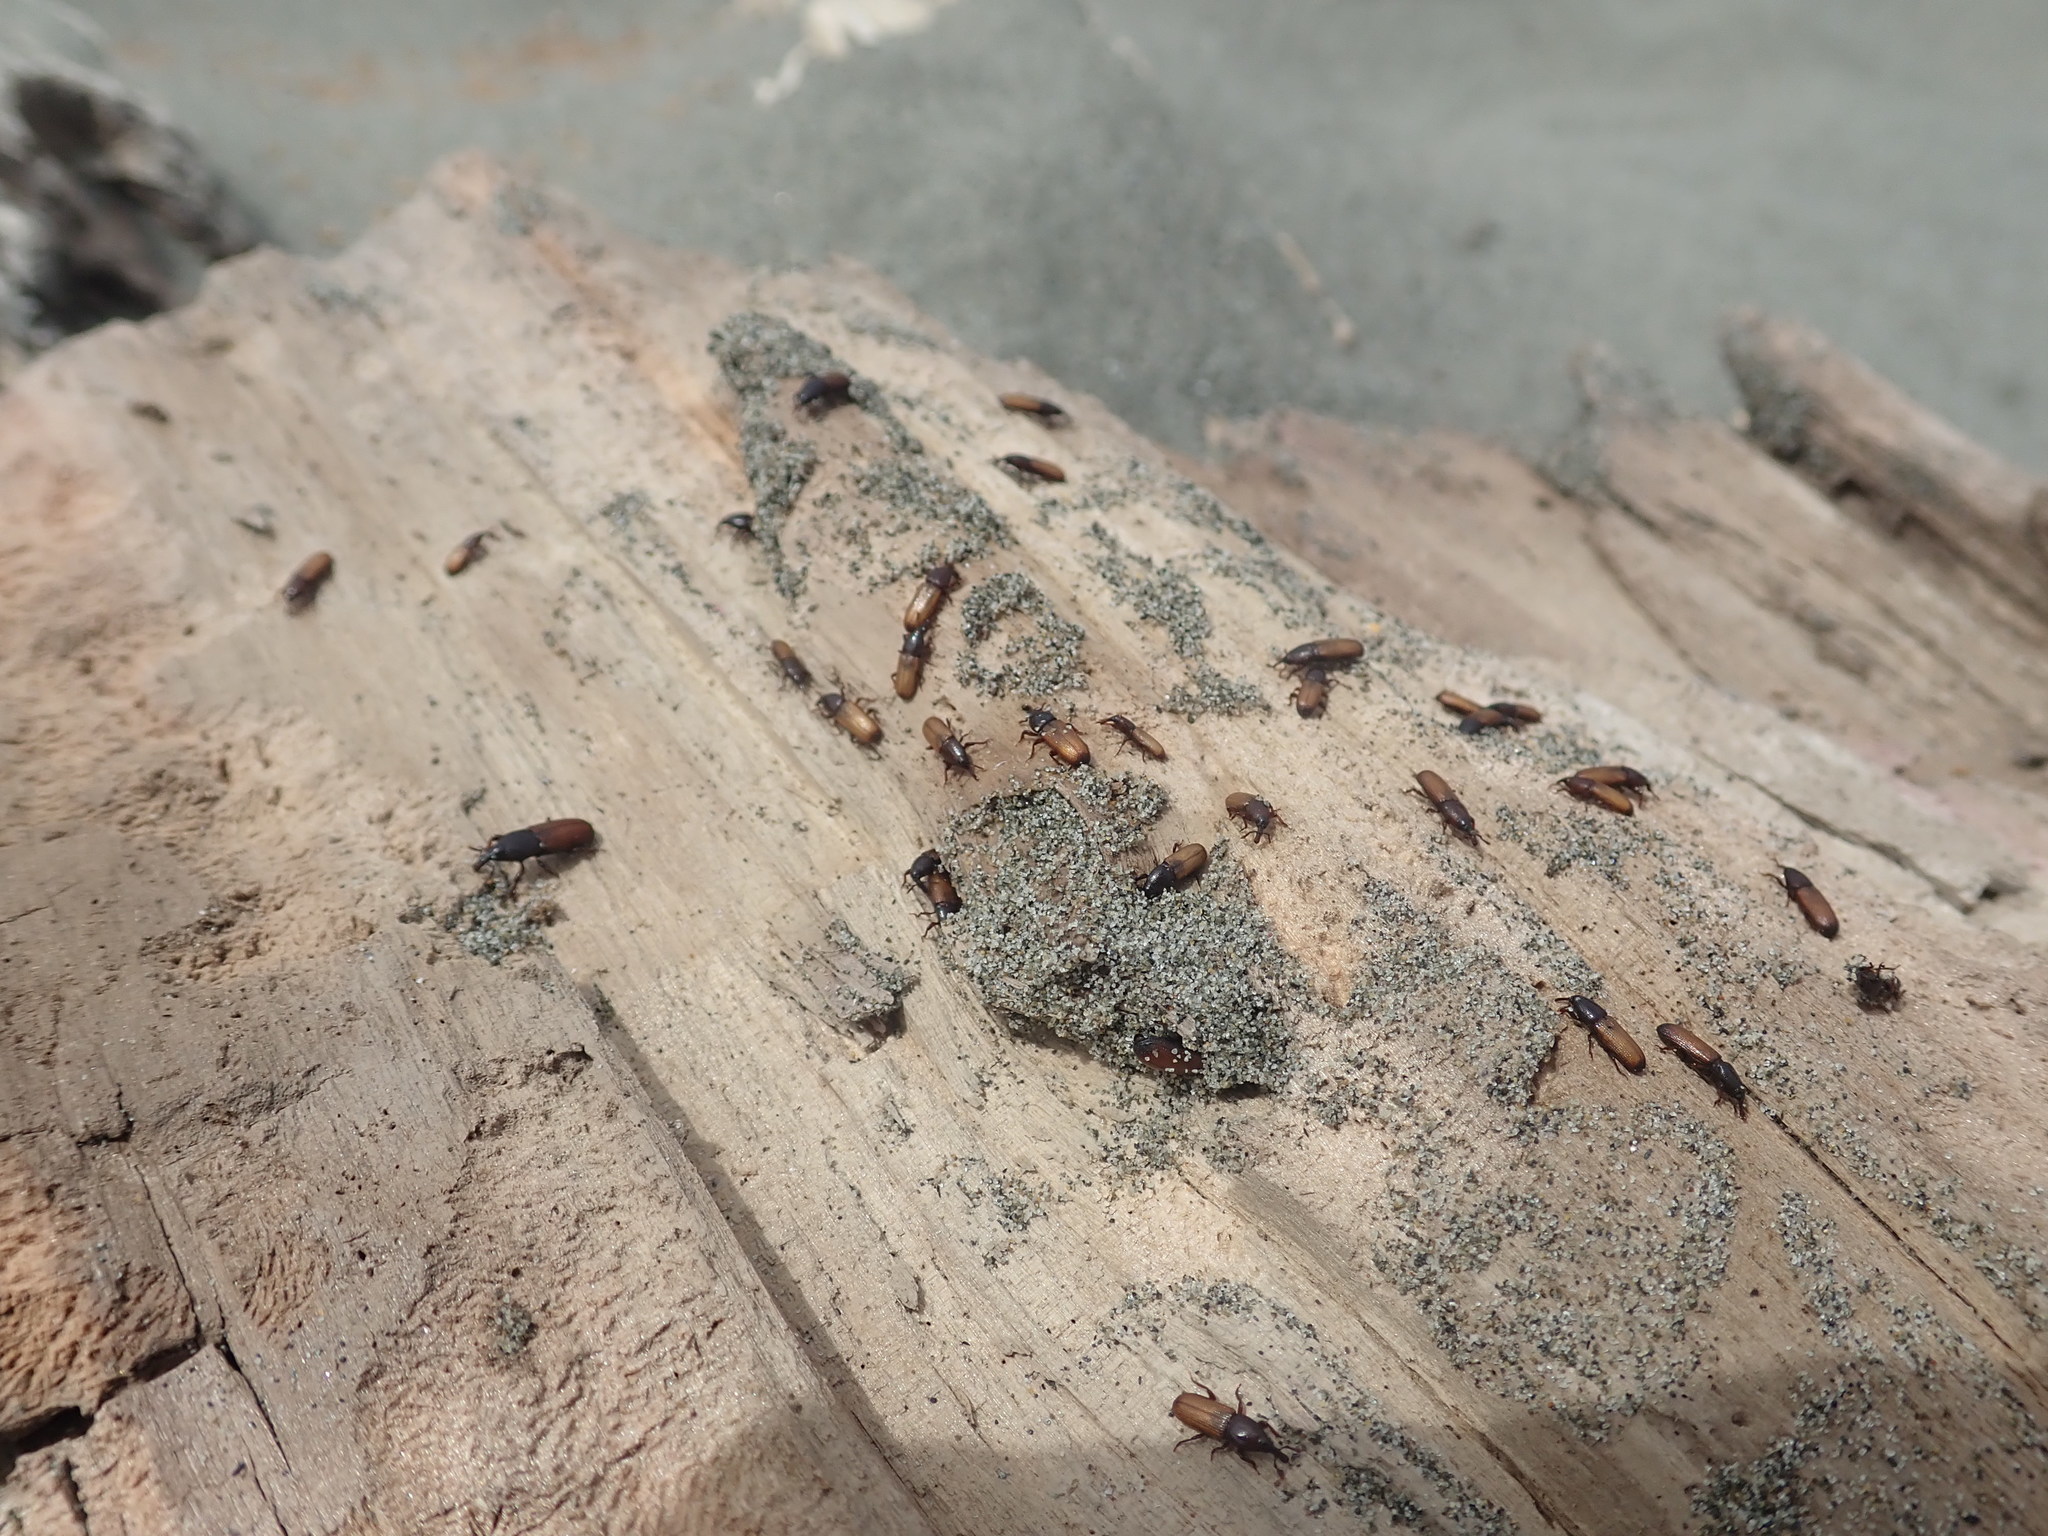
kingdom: Animalia
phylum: Arthropoda
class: Insecta
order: Coleoptera
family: Curculionidae
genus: Mesites
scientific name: Mesites pallidipennis
